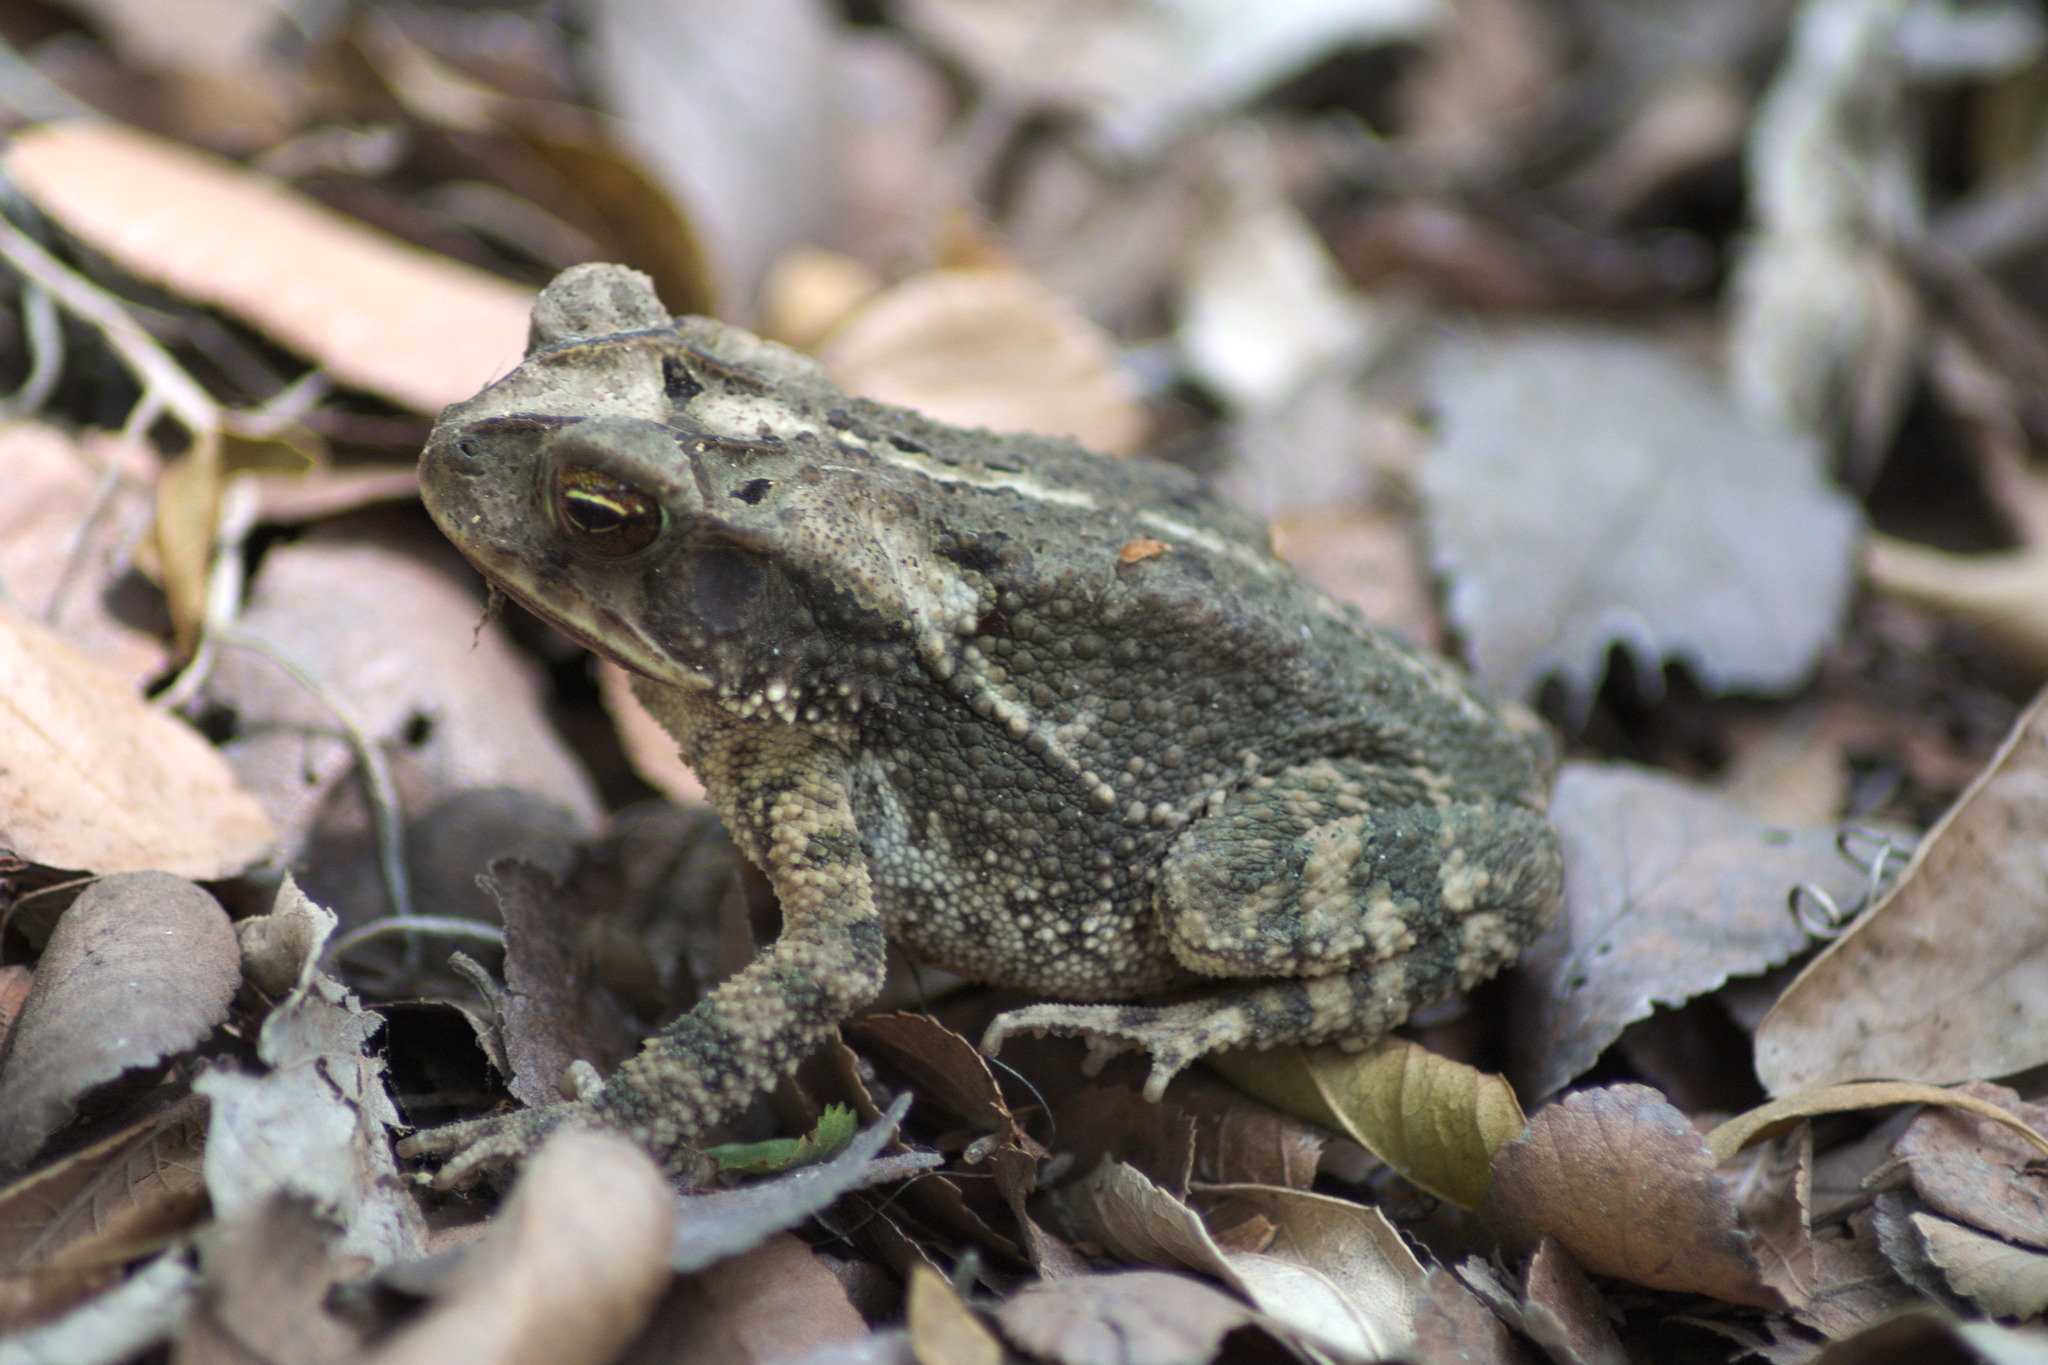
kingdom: Animalia
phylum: Chordata
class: Amphibia
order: Anura
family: Bufonidae
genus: Incilius
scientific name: Incilius nebulifer
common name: Gulf coast toad
